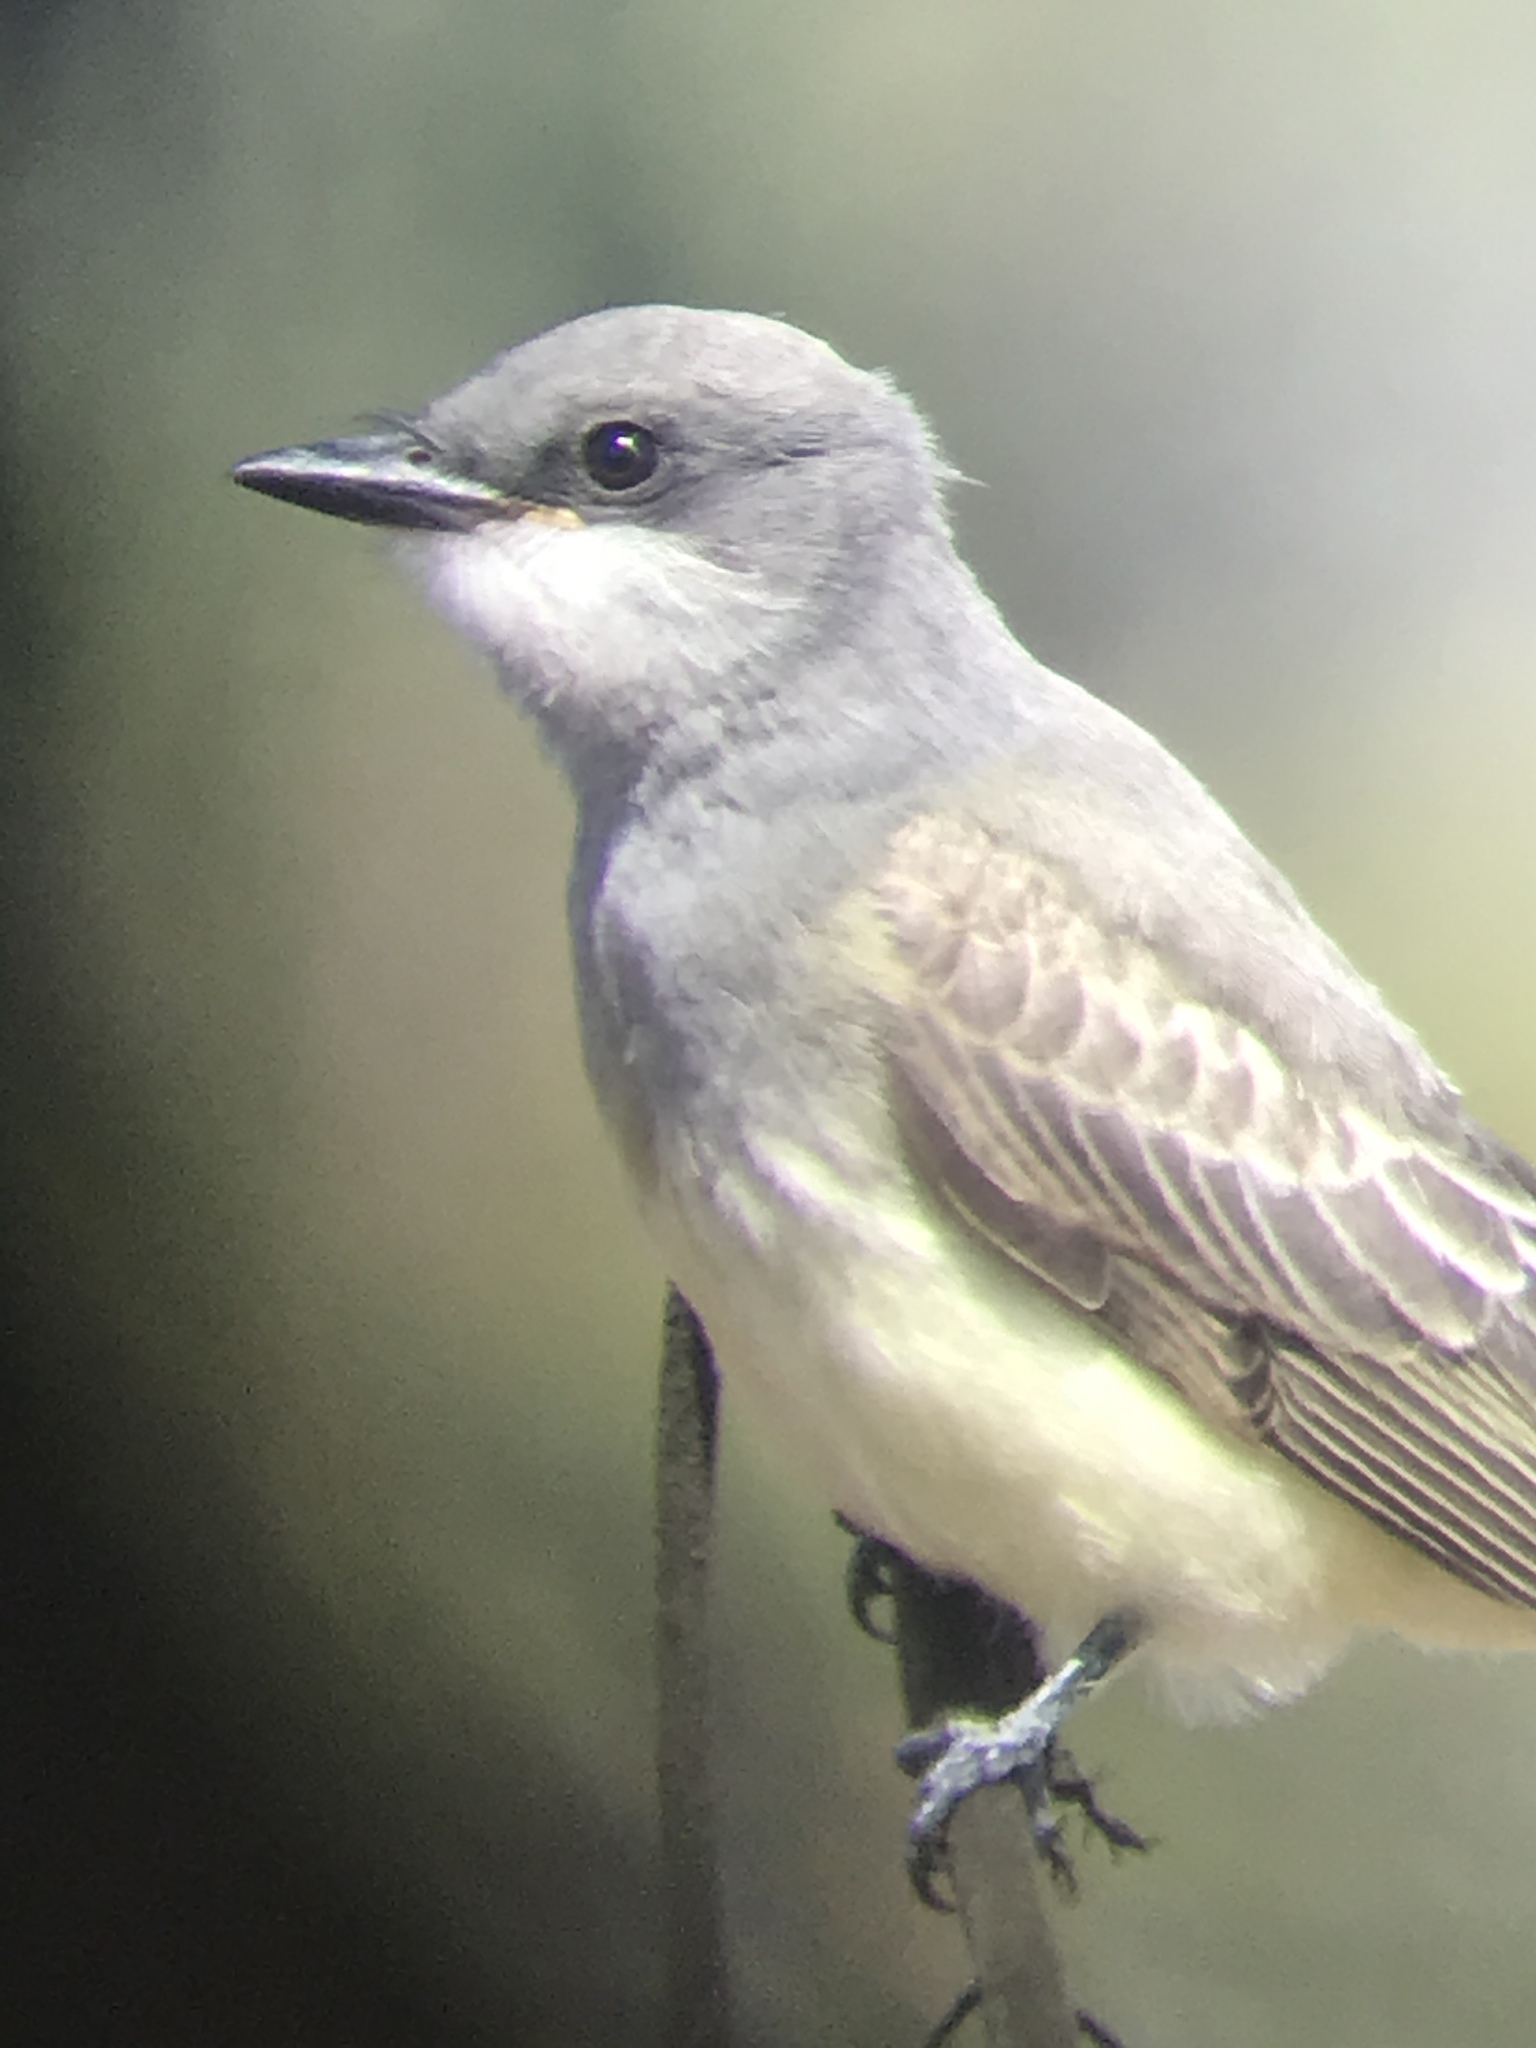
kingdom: Animalia
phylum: Chordata
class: Aves
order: Passeriformes
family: Tyrannidae
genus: Tyrannus
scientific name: Tyrannus vociferans
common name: Cassin's kingbird
